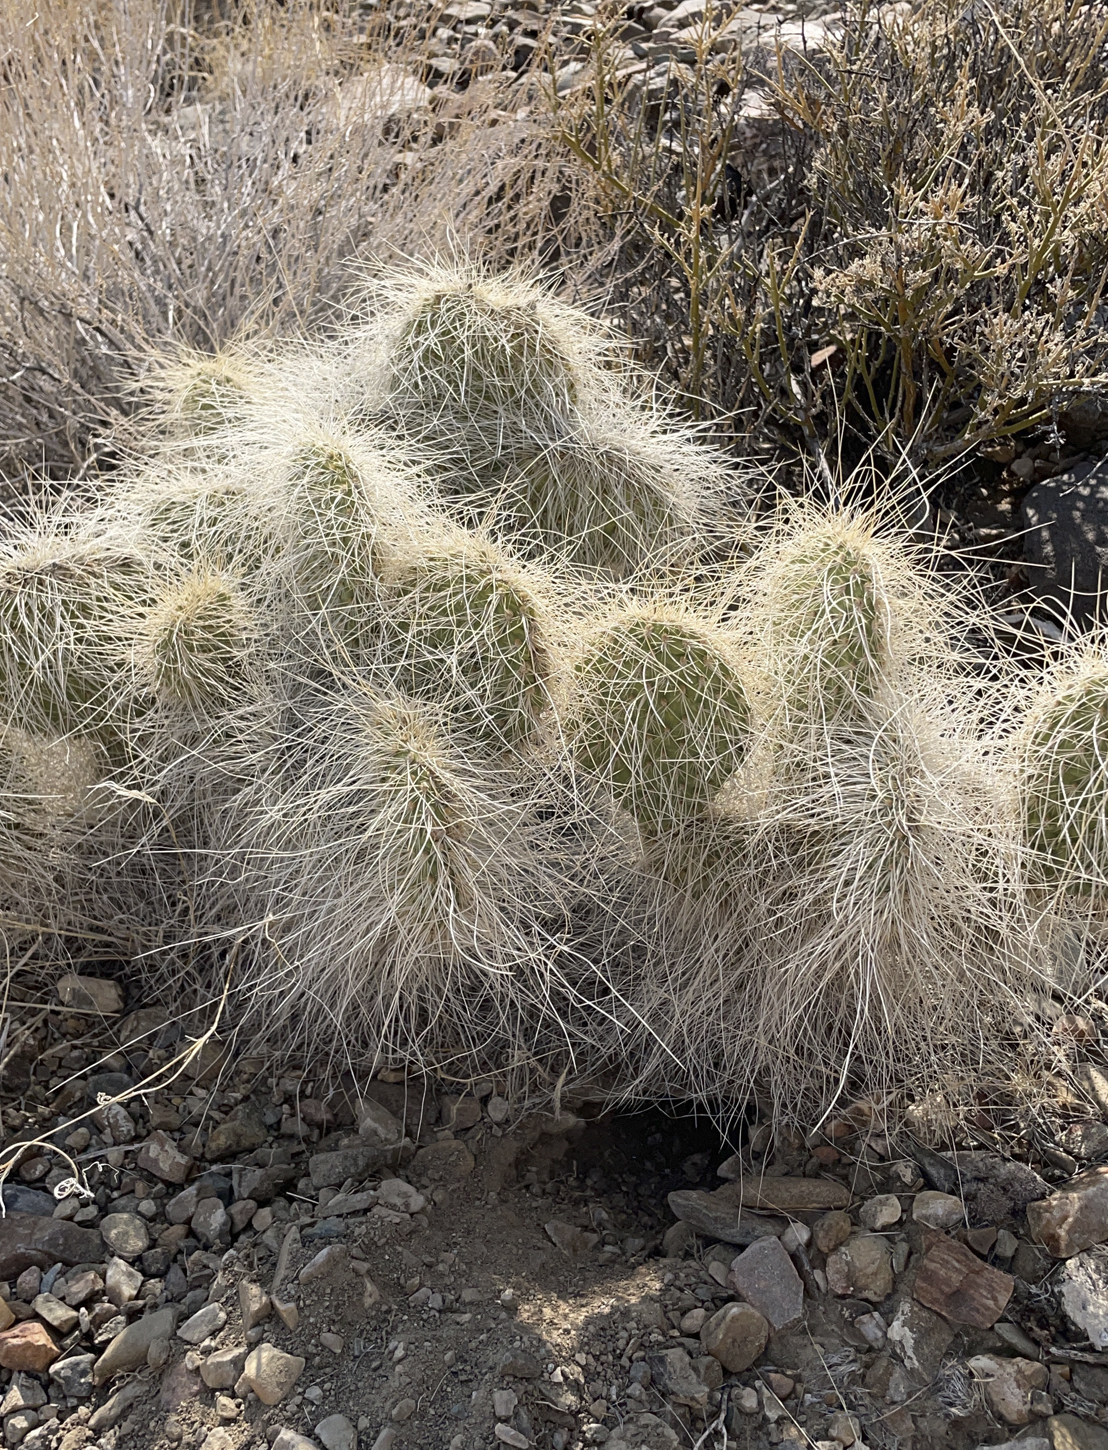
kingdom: Plantae
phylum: Tracheophyta
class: Magnoliopsida
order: Caryophyllales
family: Cactaceae
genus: Opuntia
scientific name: Opuntia polyacantha
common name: Plains prickly-pear
